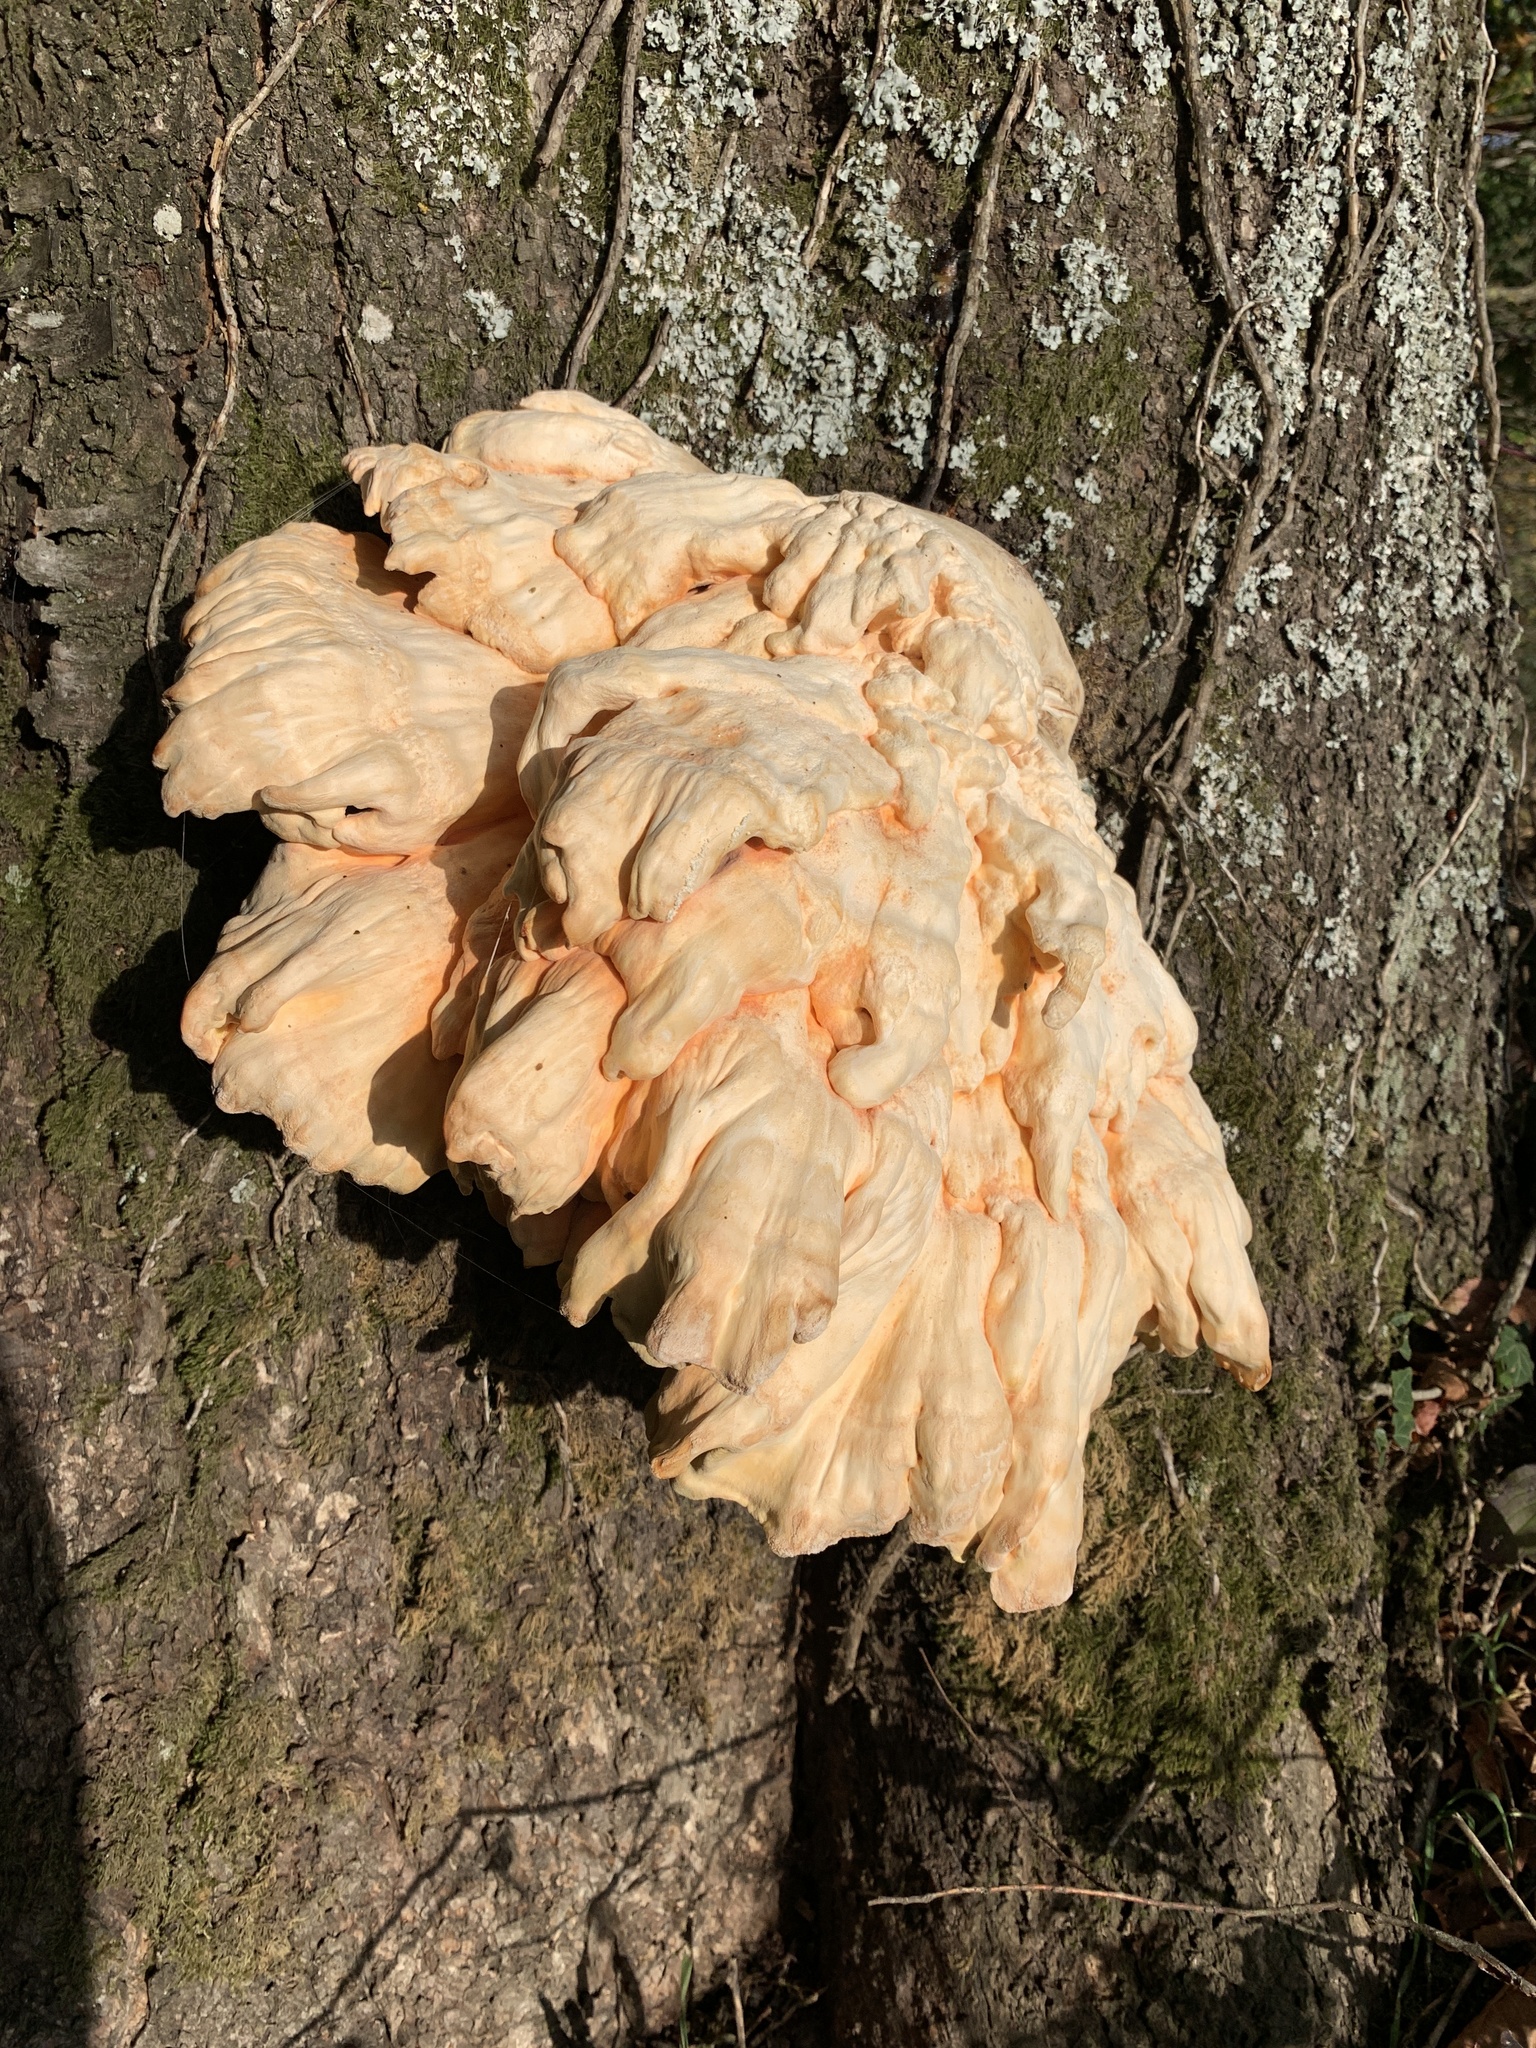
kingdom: Fungi
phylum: Basidiomycota
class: Agaricomycetes
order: Polyporales
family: Laetiporaceae
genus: Laetiporus
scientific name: Laetiporus sulphureus
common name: Chicken of the woods
